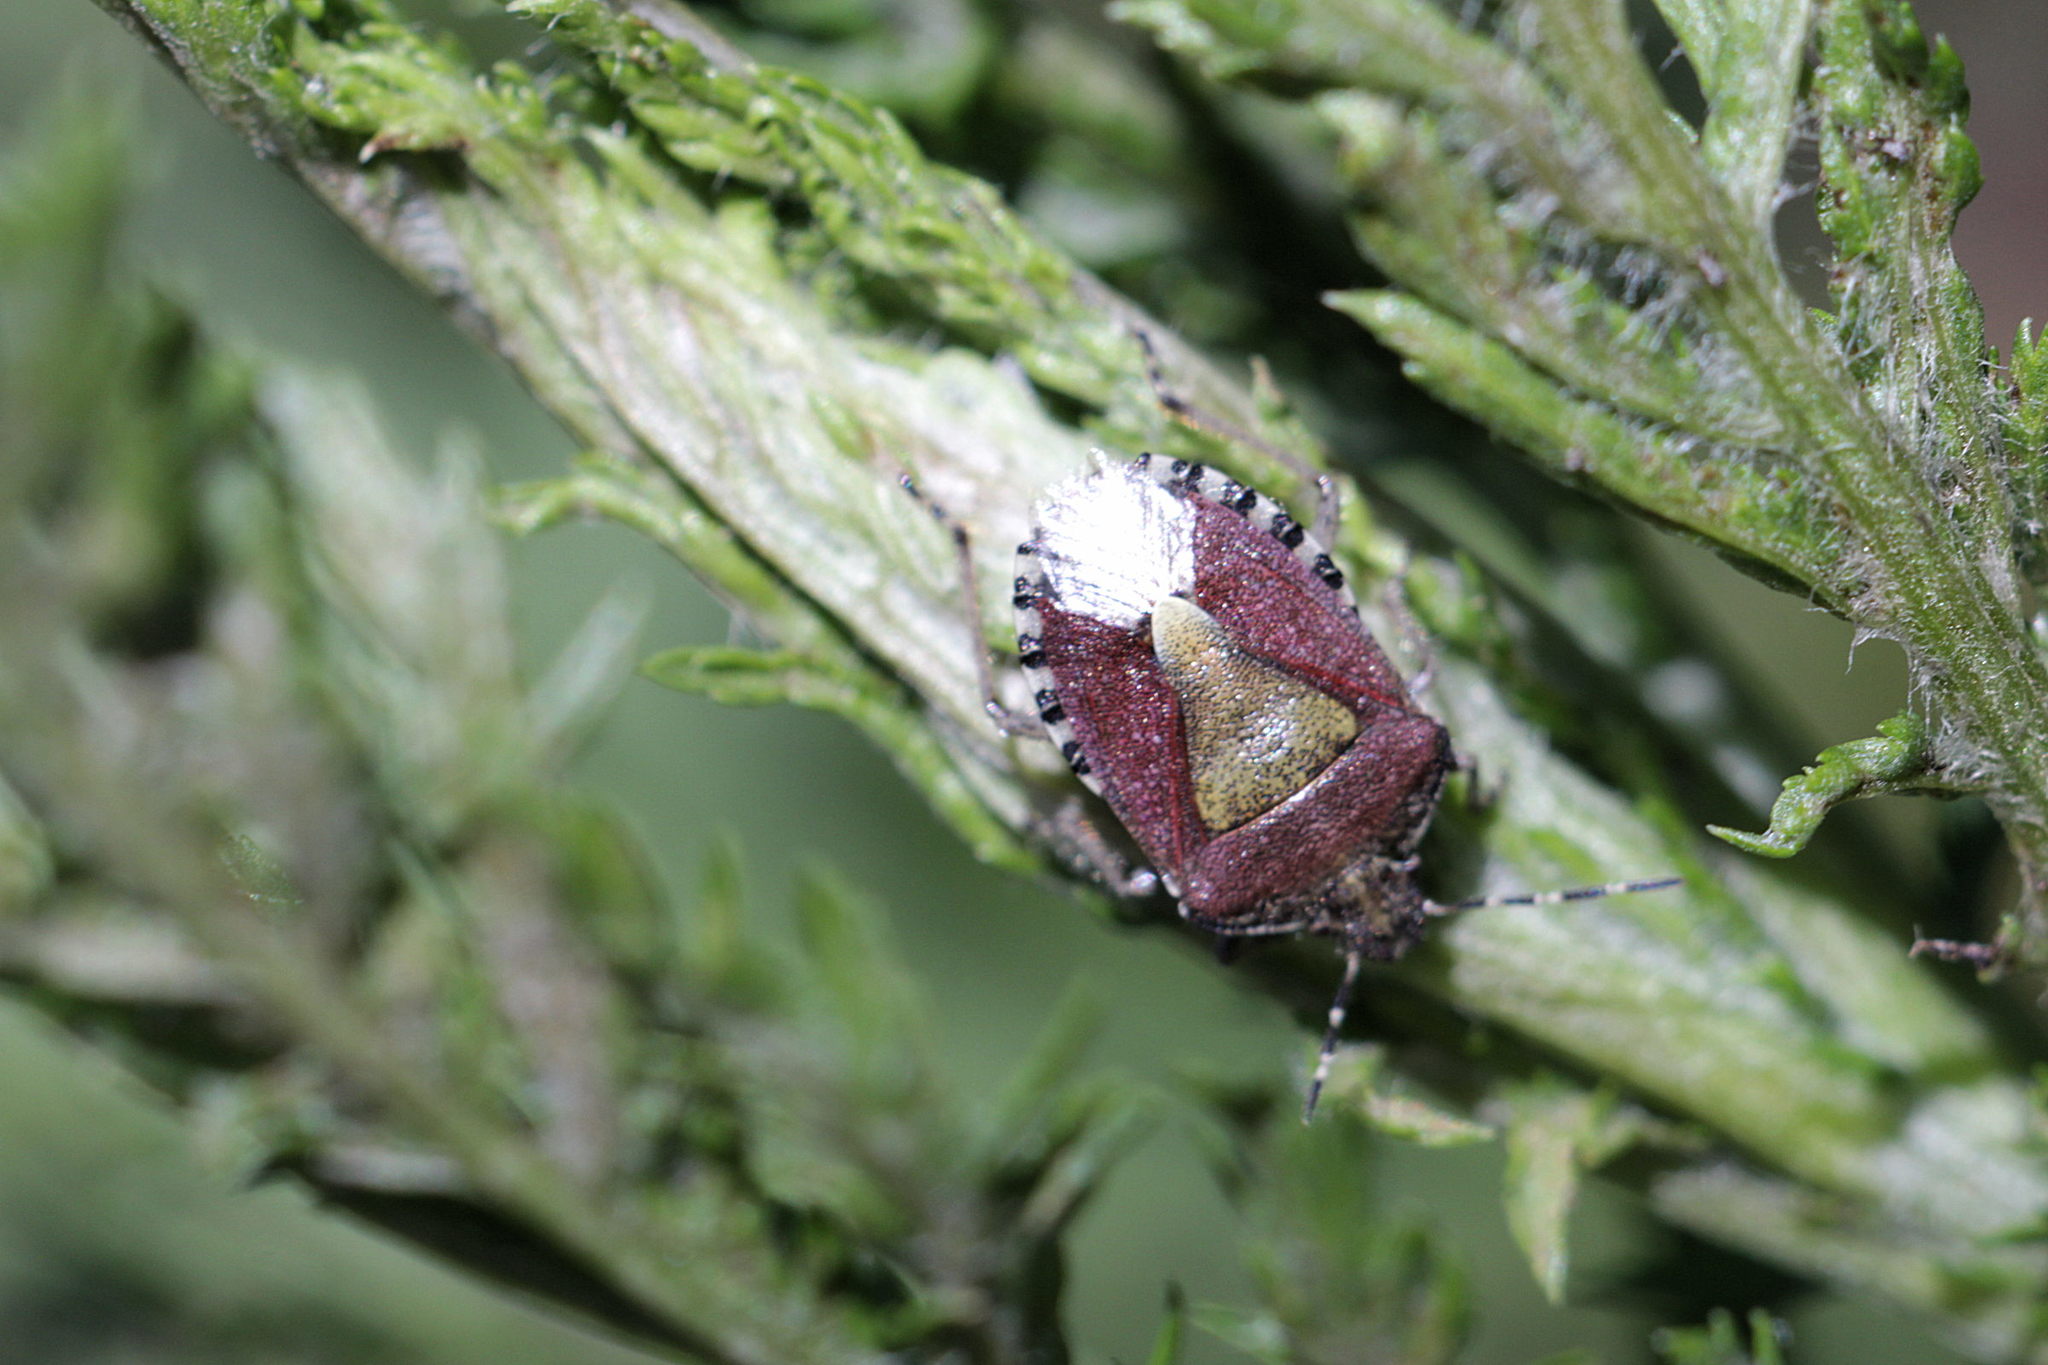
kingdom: Animalia
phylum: Arthropoda
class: Insecta
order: Hemiptera
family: Pentatomidae
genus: Dolycoris
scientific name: Dolycoris baccarum
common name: Sloe bug
